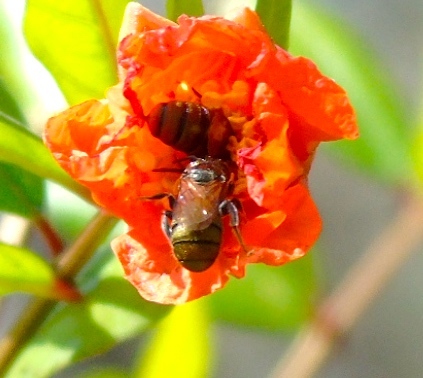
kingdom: Animalia
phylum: Arthropoda
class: Insecta
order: Hymenoptera
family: Apidae
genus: Ceratina
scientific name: Ceratina
